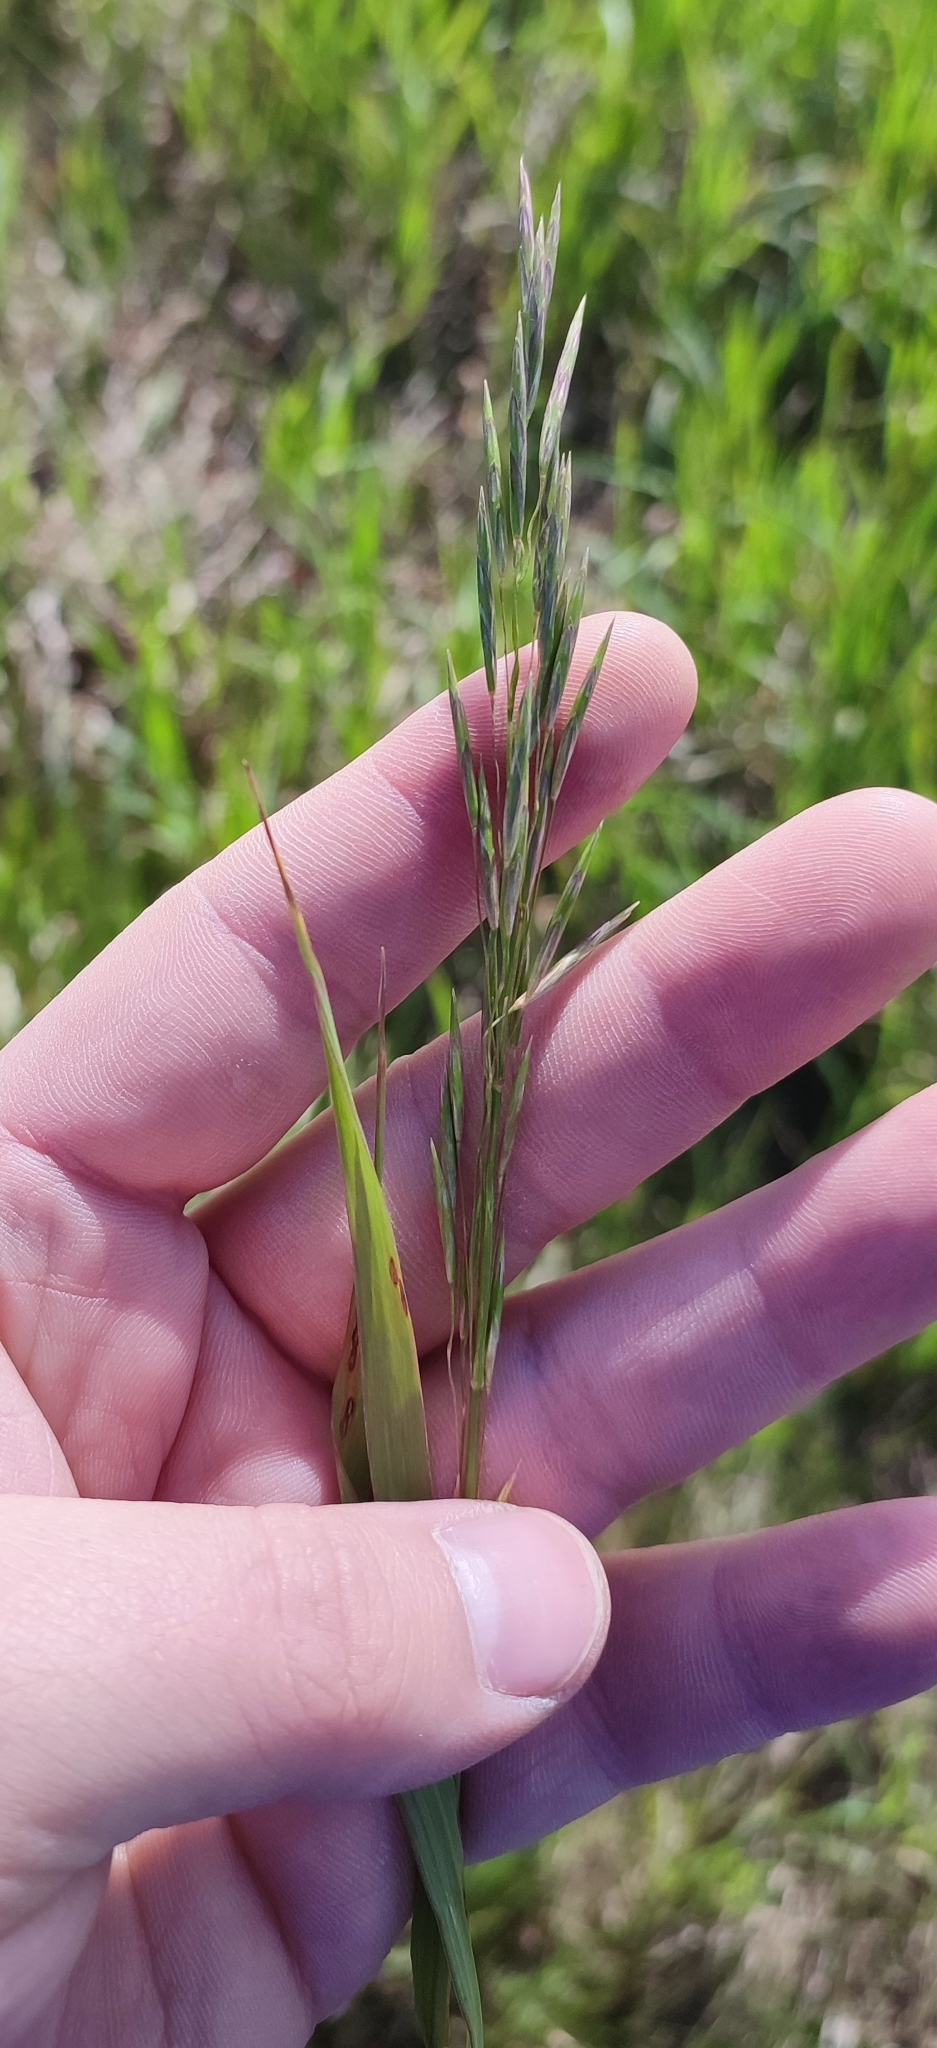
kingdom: Plantae
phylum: Tracheophyta
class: Liliopsida
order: Poales
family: Poaceae
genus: Bromus
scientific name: Bromus inermis
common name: Smooth brome
